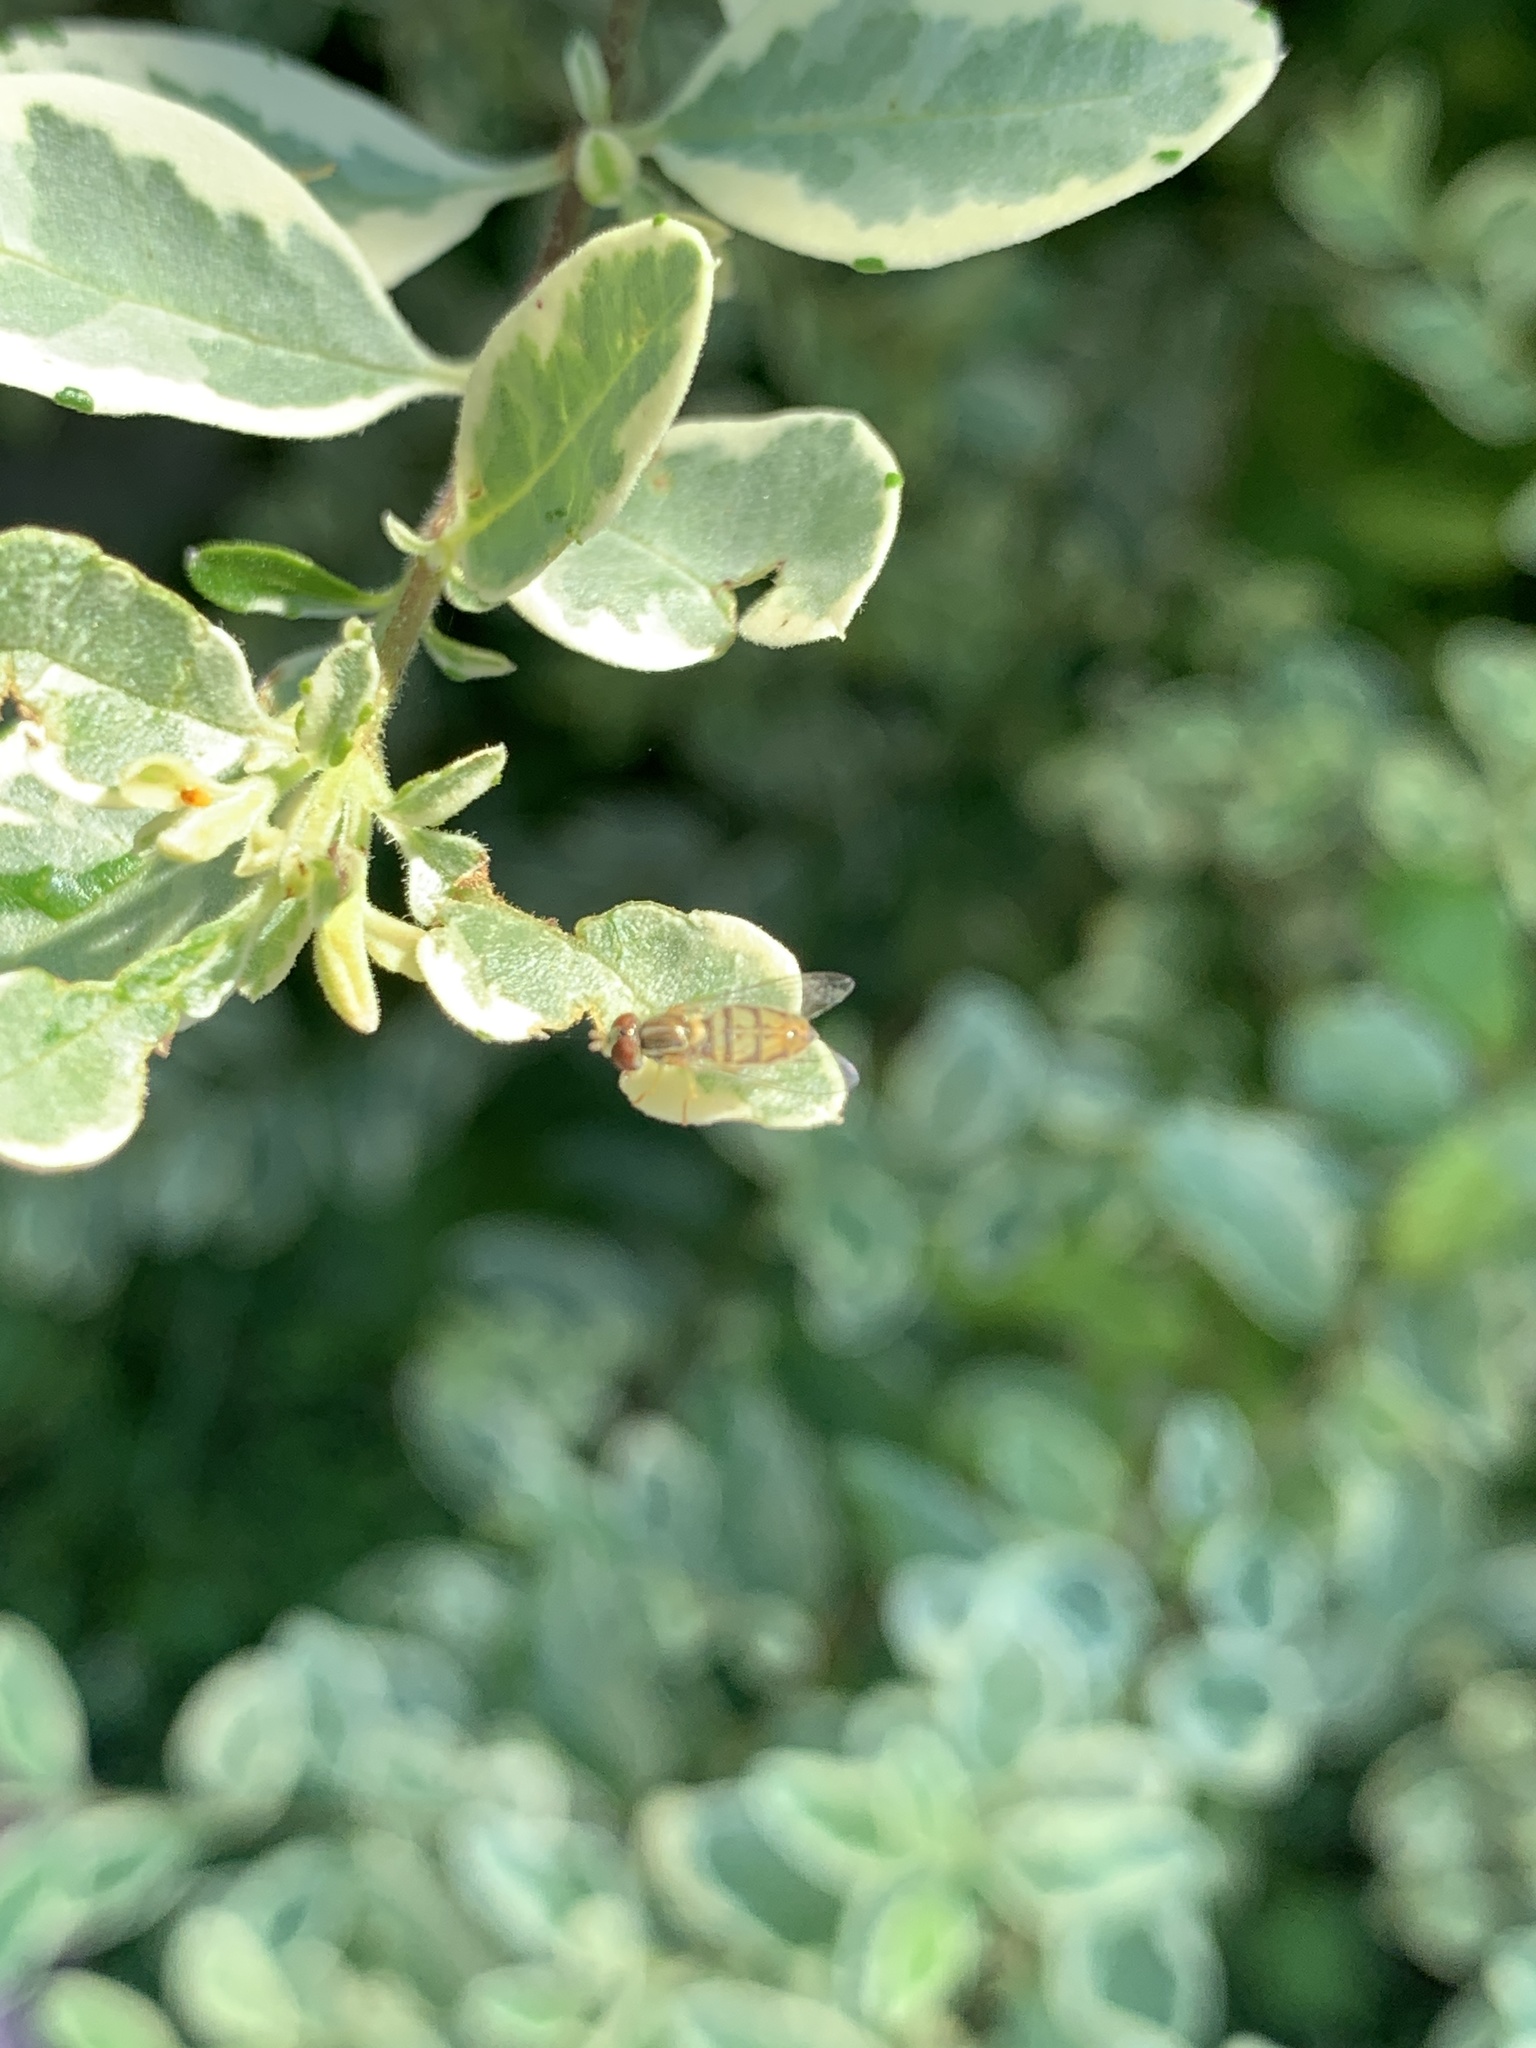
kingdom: Animalia
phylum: Arthropoda
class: Insecta
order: Diptera
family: Syrphidae
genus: Toxomerus
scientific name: Toxomerus marginatus
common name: Syrphid fly
